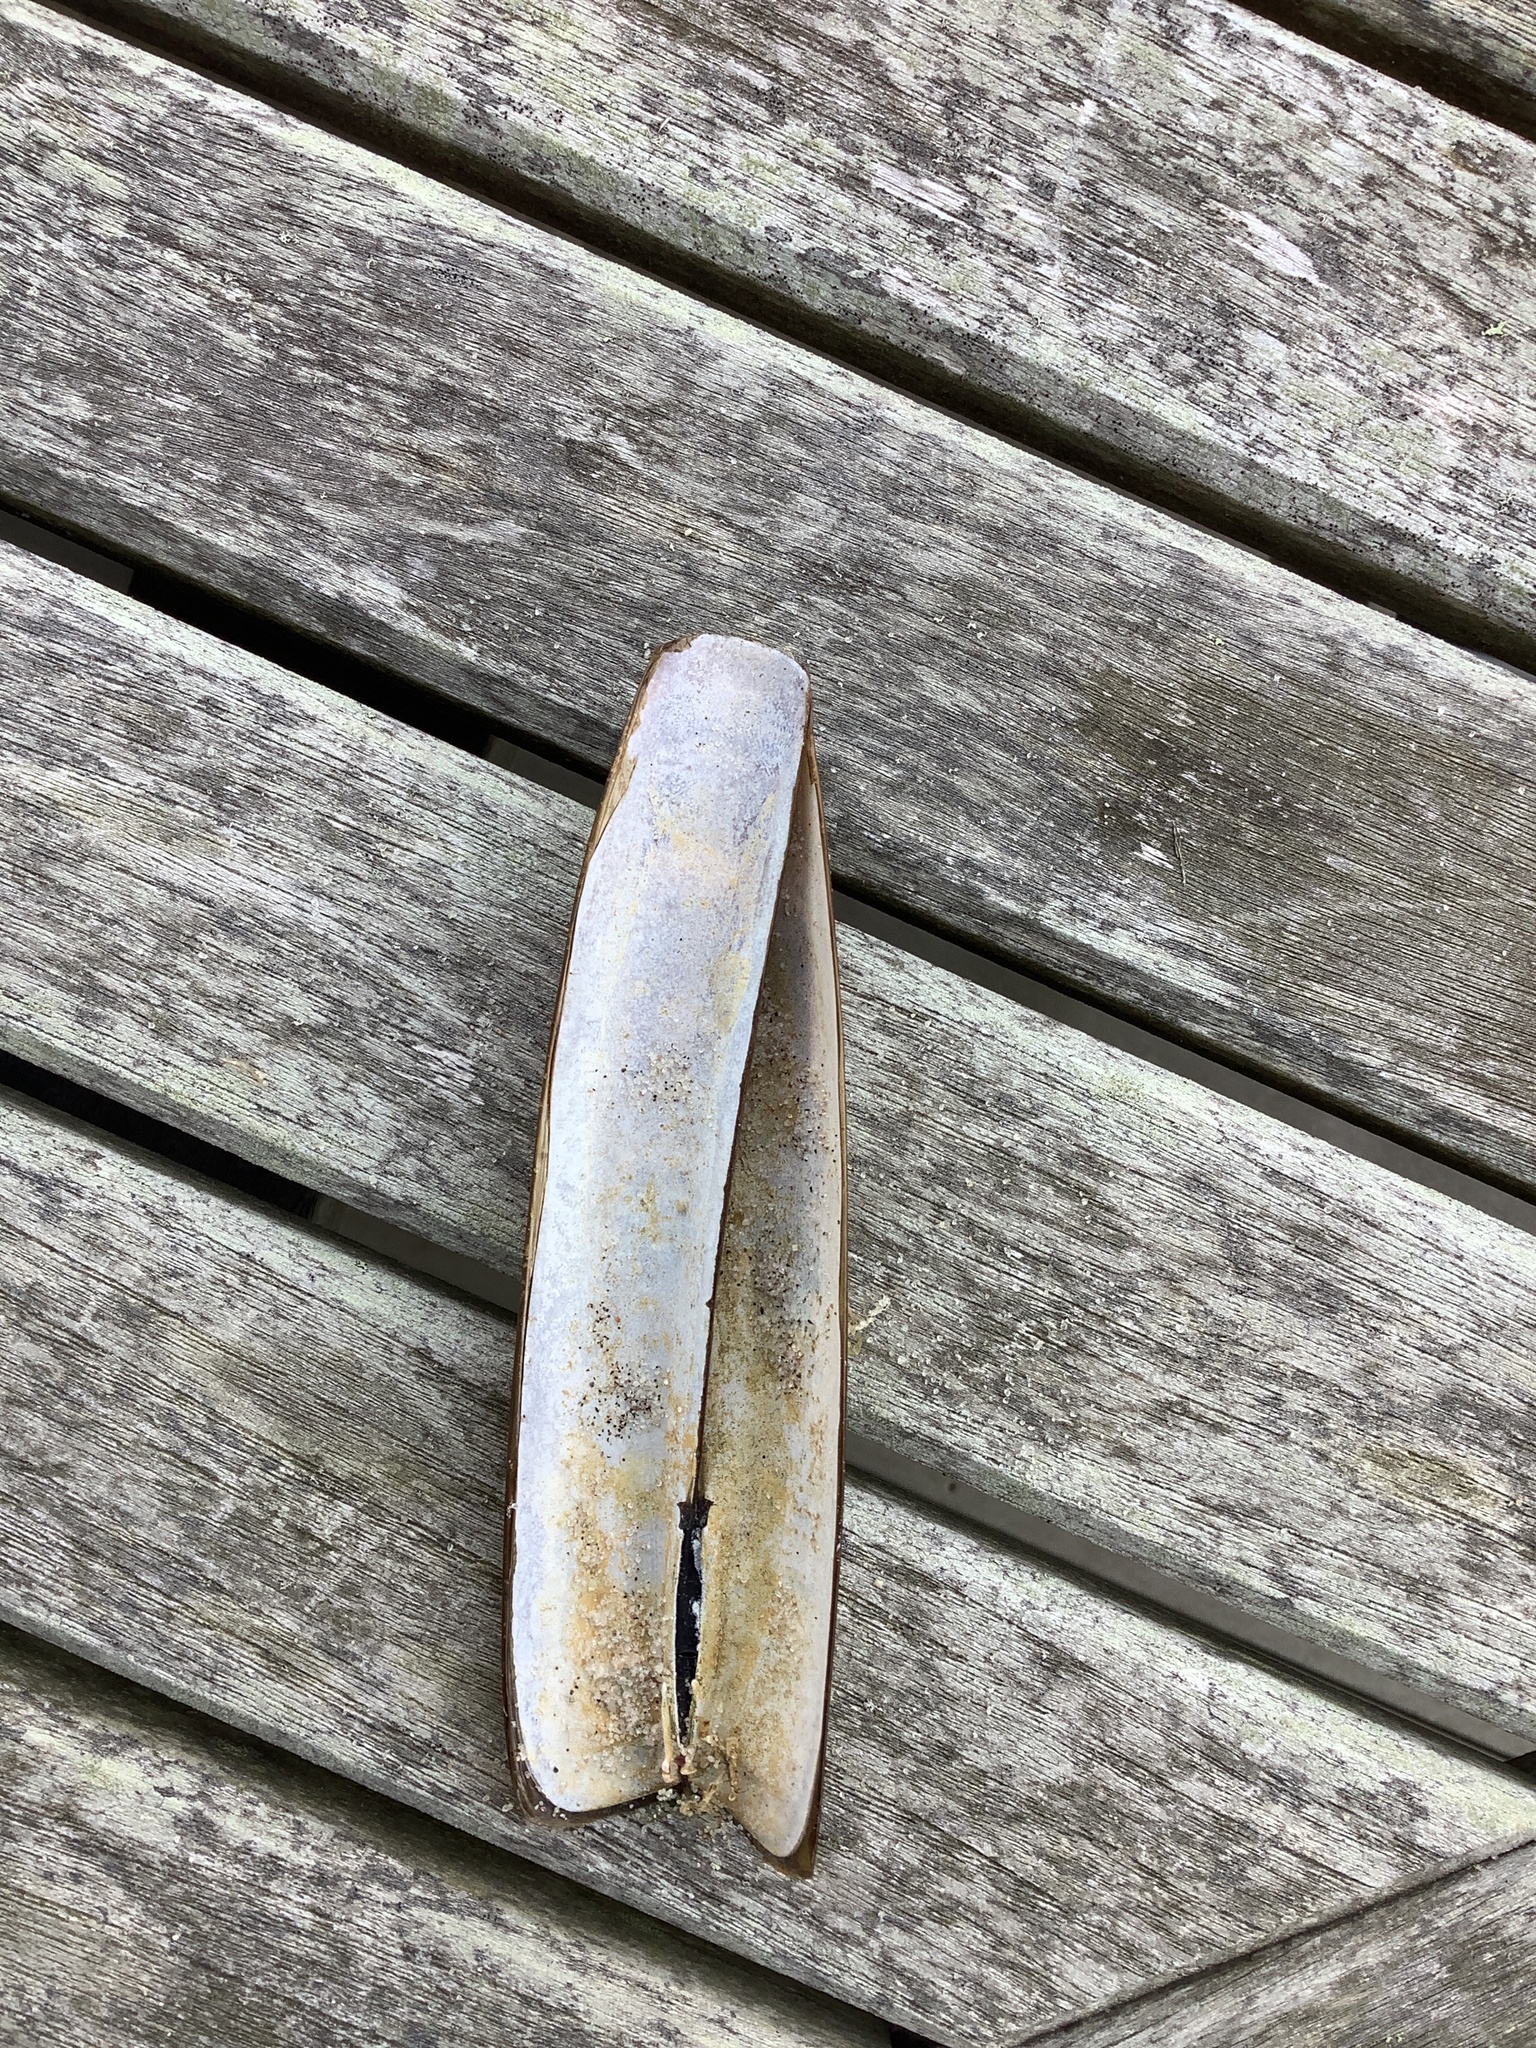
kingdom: Animalia
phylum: Mollusca
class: Bivalvia
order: Adapedonta
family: Pharidae
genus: Ensis
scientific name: Ensis leei
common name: American jack knife clam
